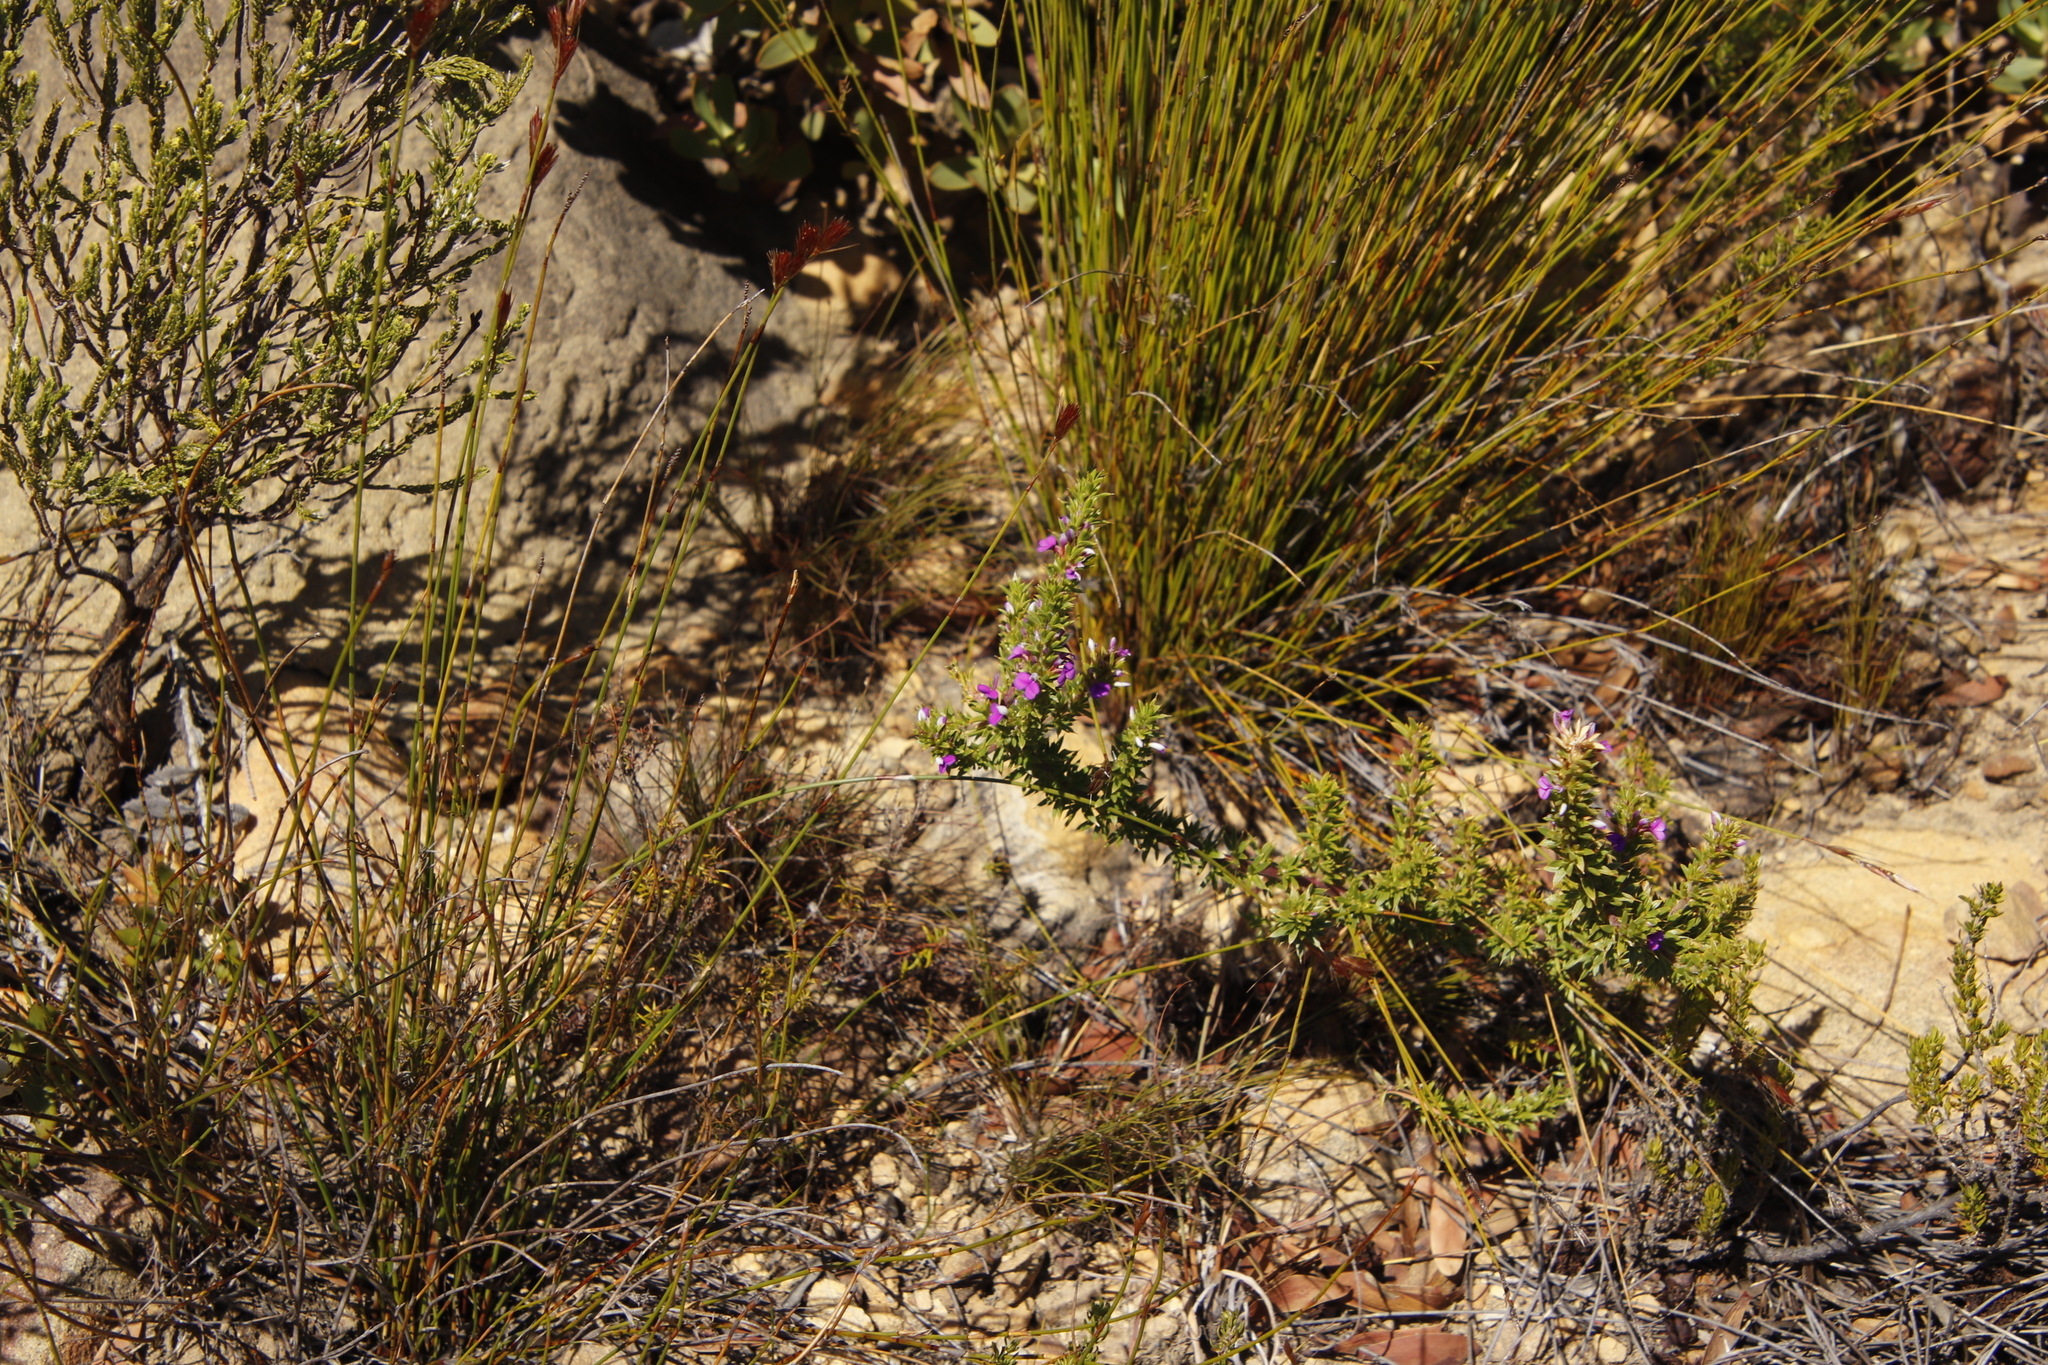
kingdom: Plantae
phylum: Tracheophyta
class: Magnoliopsida
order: Fabales
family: Polygalaceae
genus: Muraltia
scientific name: Muraltia heisteria
